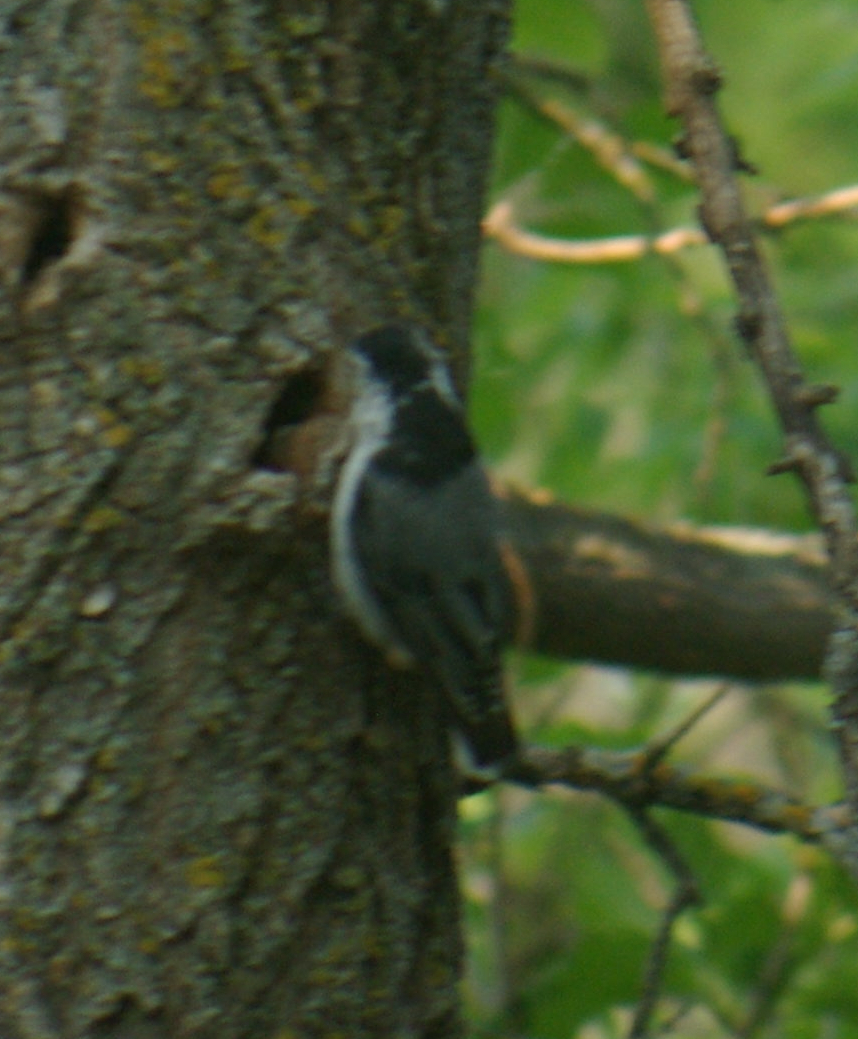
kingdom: Animalia
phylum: Chordata
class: Aves
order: Passeriformes
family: Sittidae
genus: Sitta
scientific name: Sitta carolinensis
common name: White-breasted nuthatch
